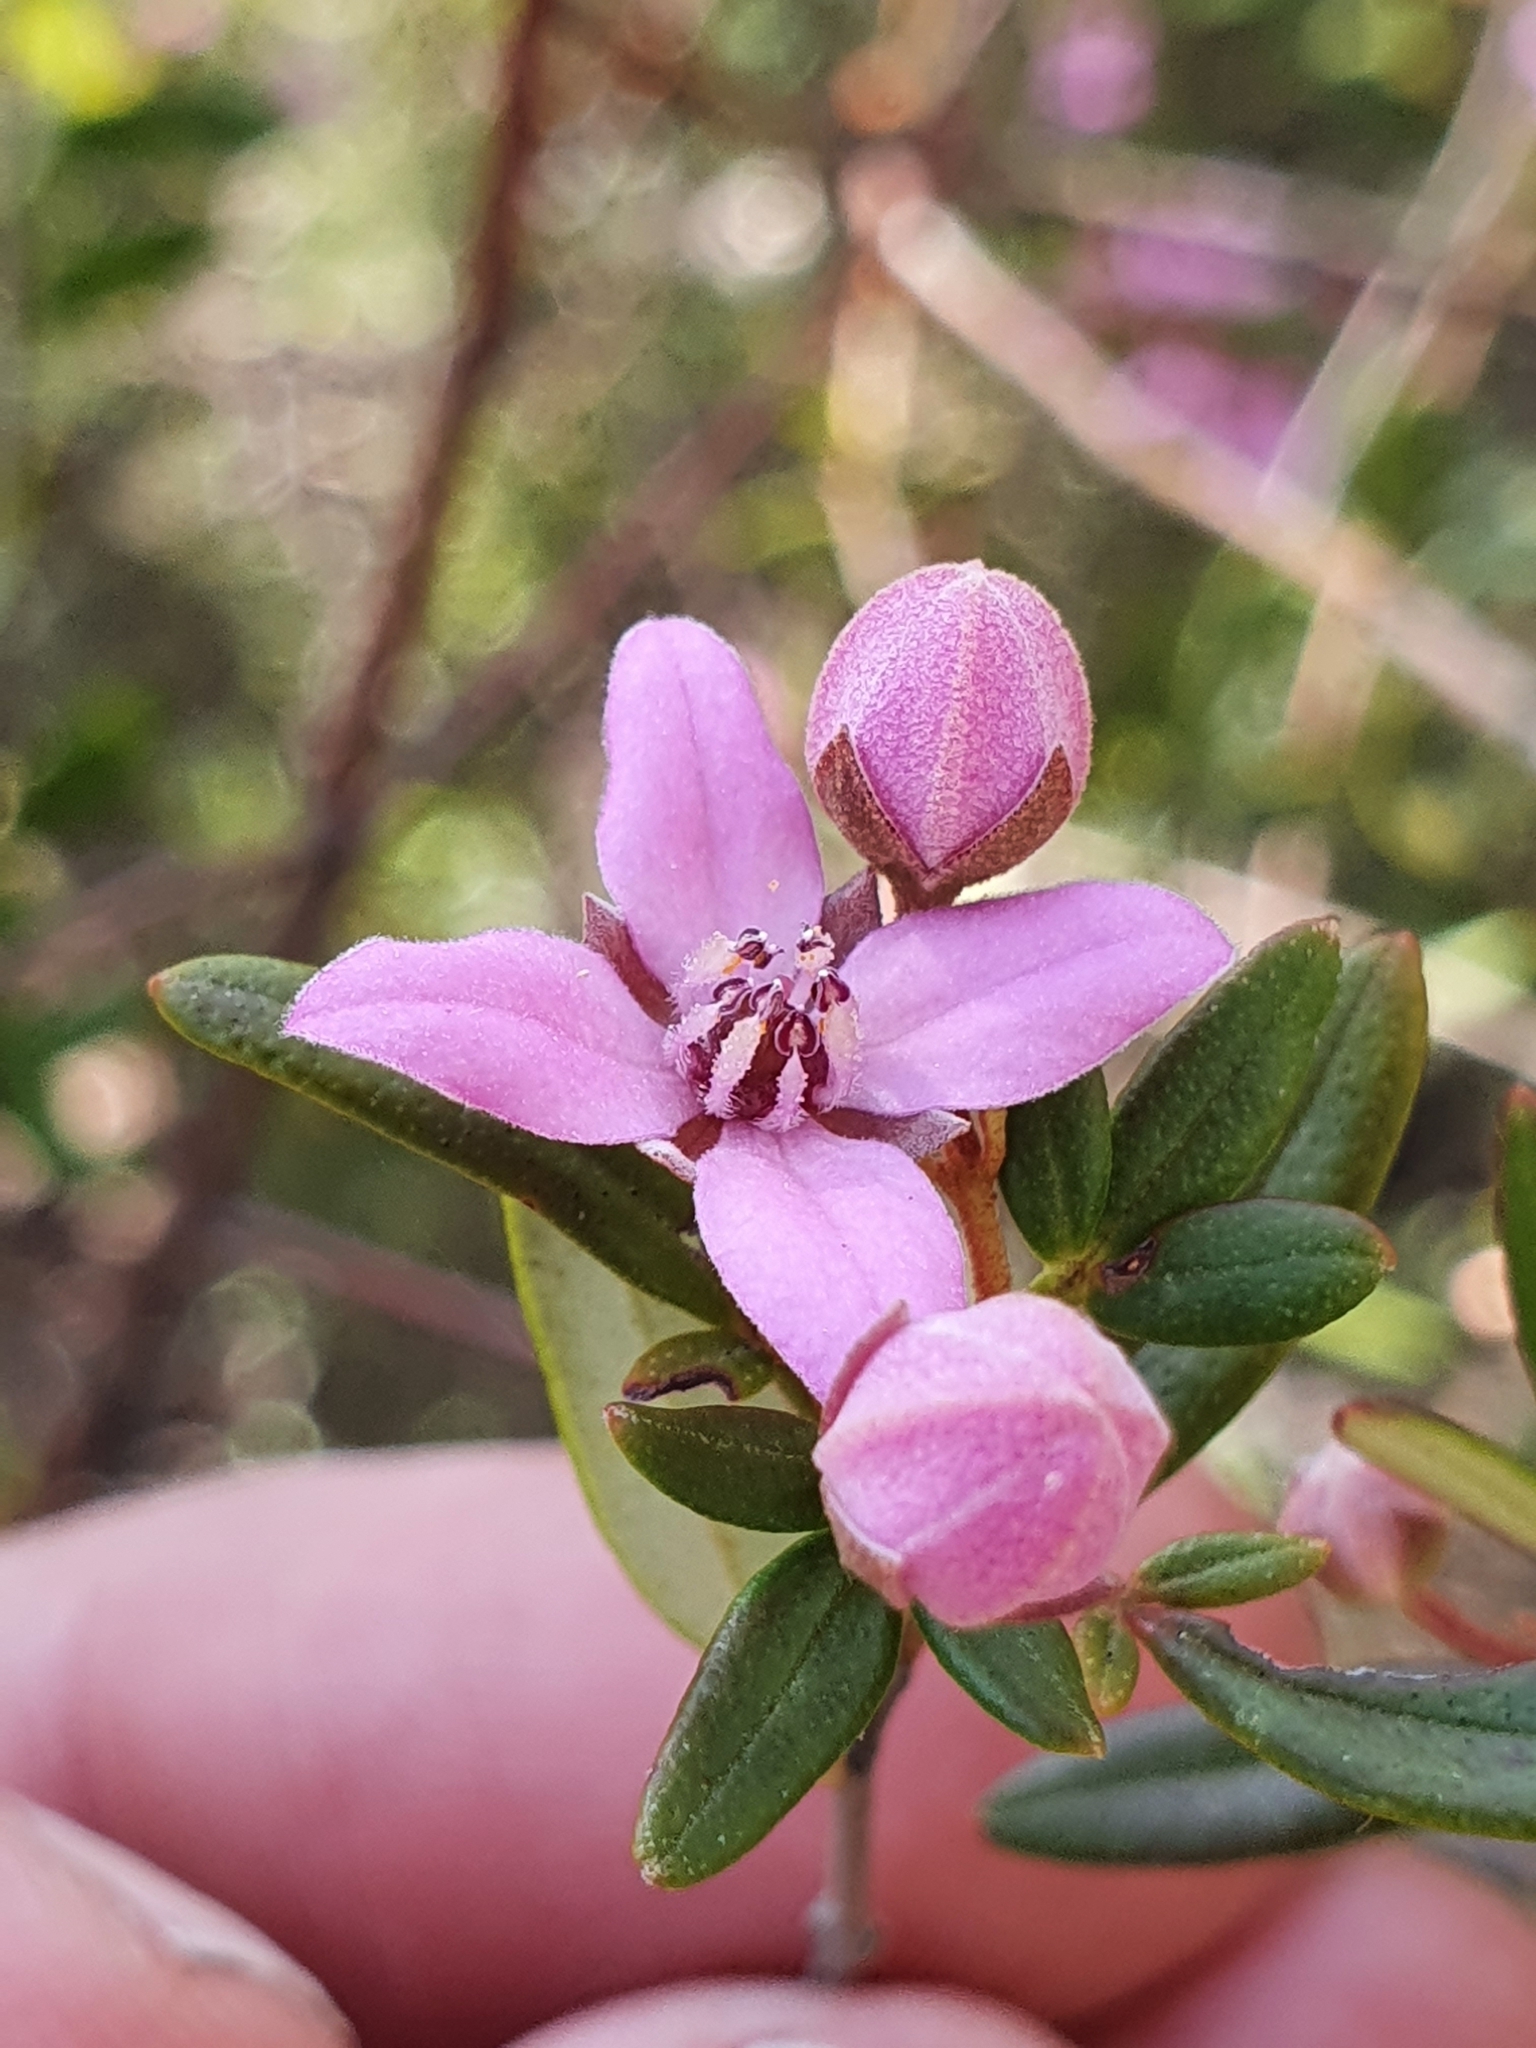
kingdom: Plantae
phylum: Tracheophyta
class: Magnoliopsida
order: Sapindales
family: Rutaceae
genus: Boronia
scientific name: Boronia ledifolia
